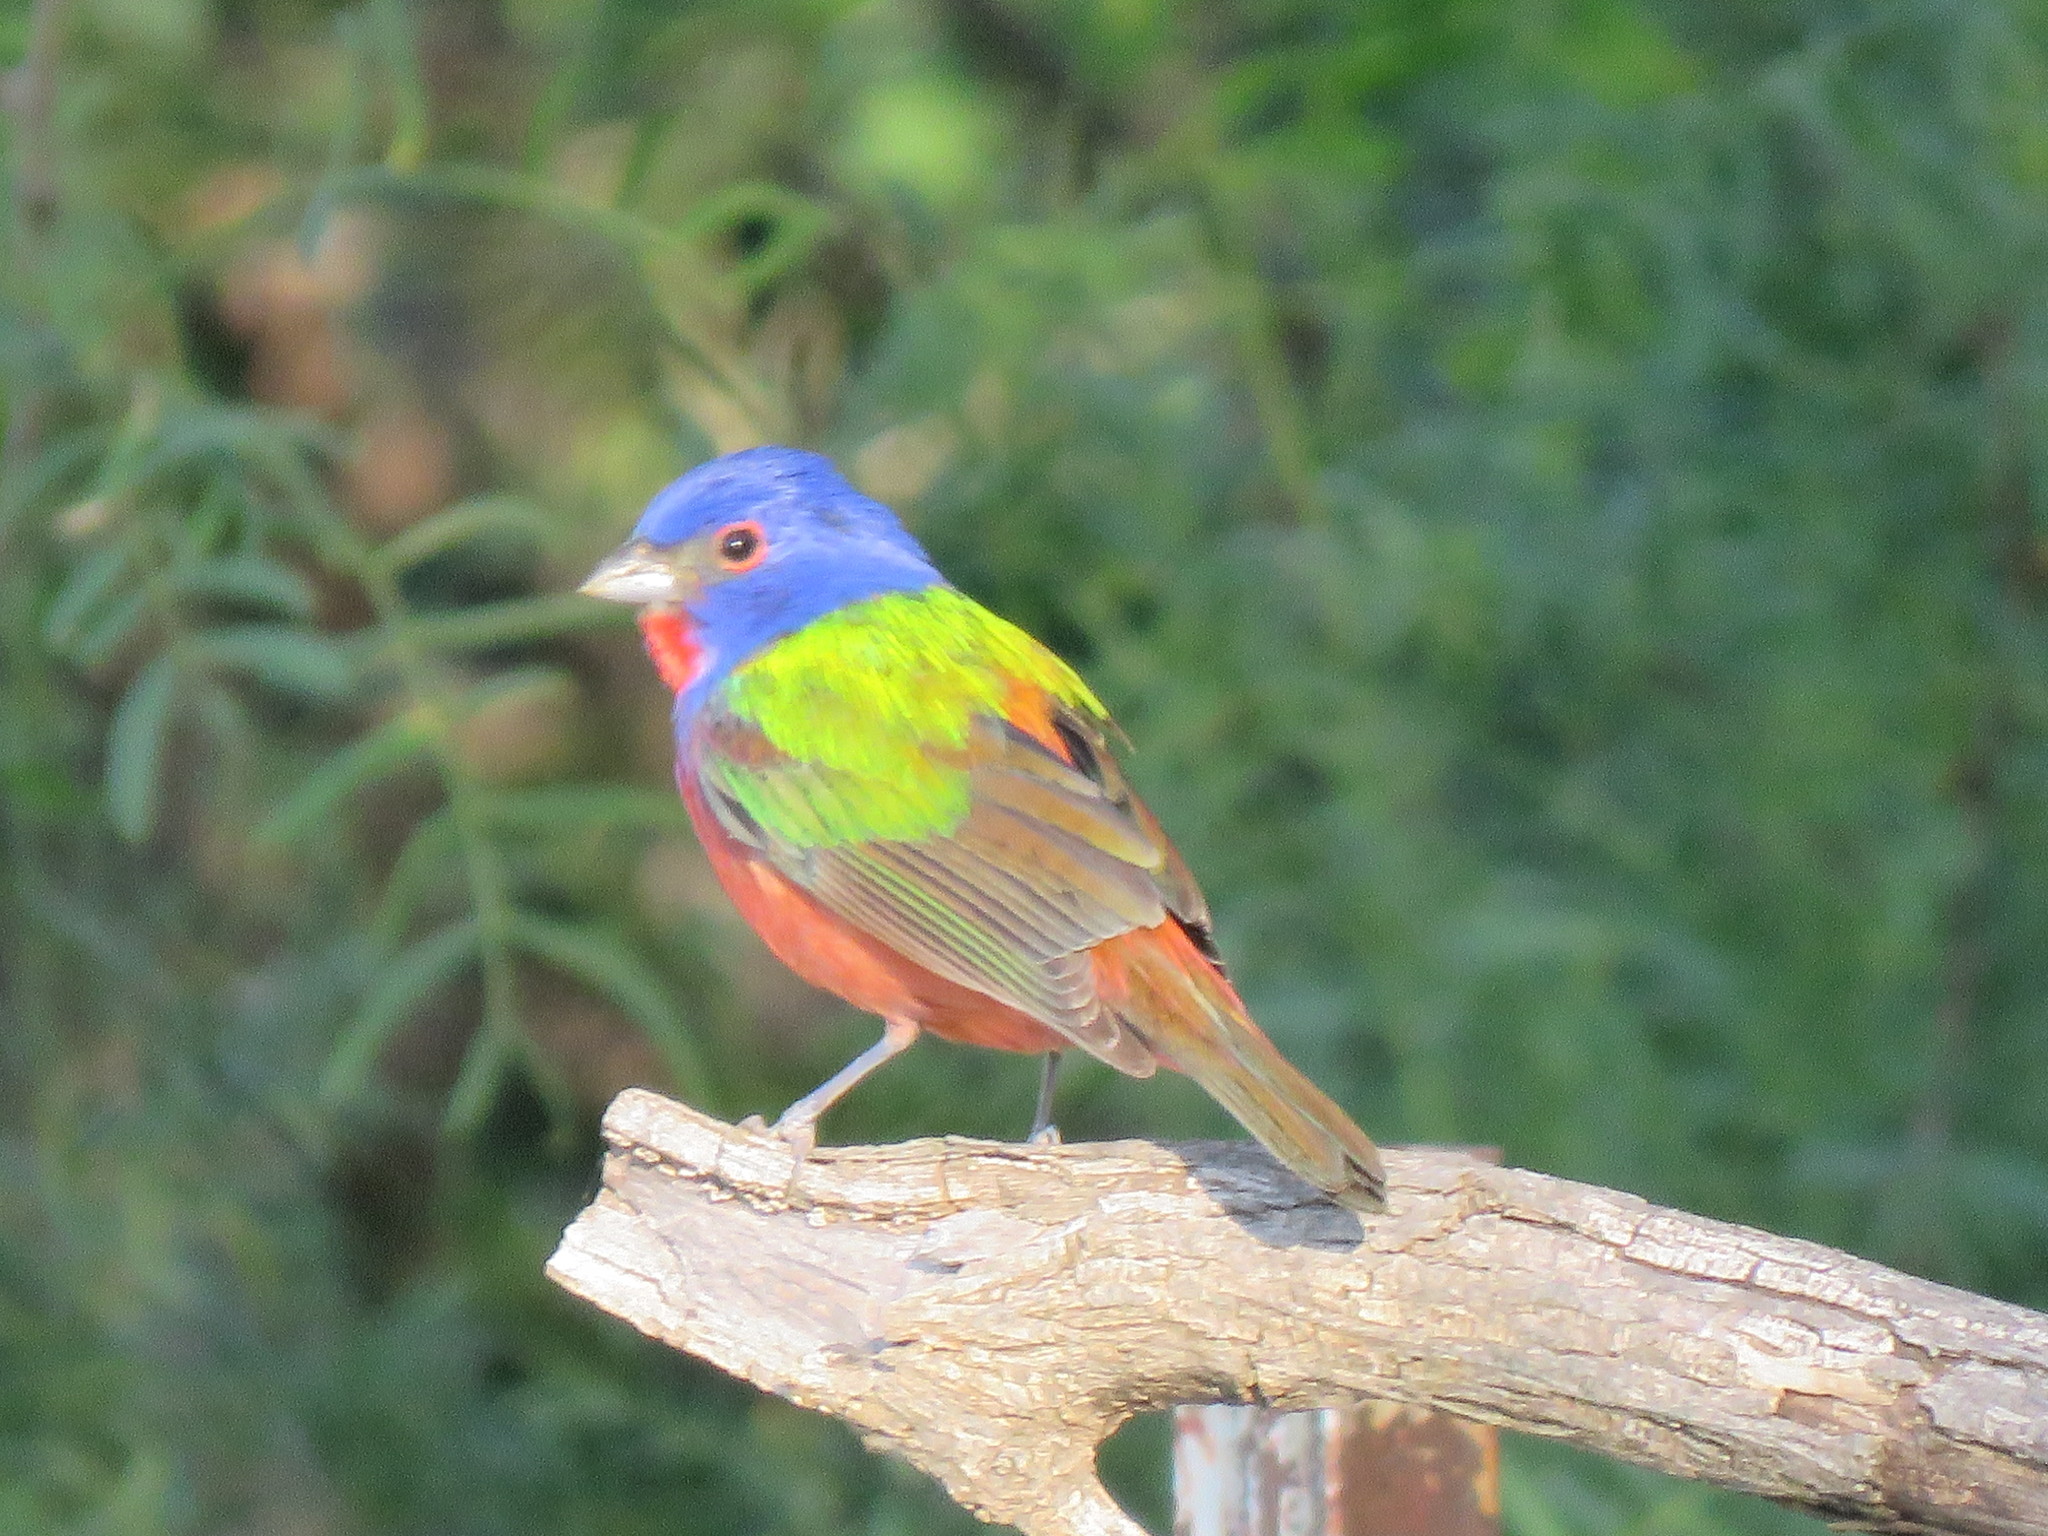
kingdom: Animalia
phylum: Chordata
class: Aves
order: Passeriformes
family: Cardinalidae
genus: Passerina
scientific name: Passerina ciris
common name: Painted bunting
